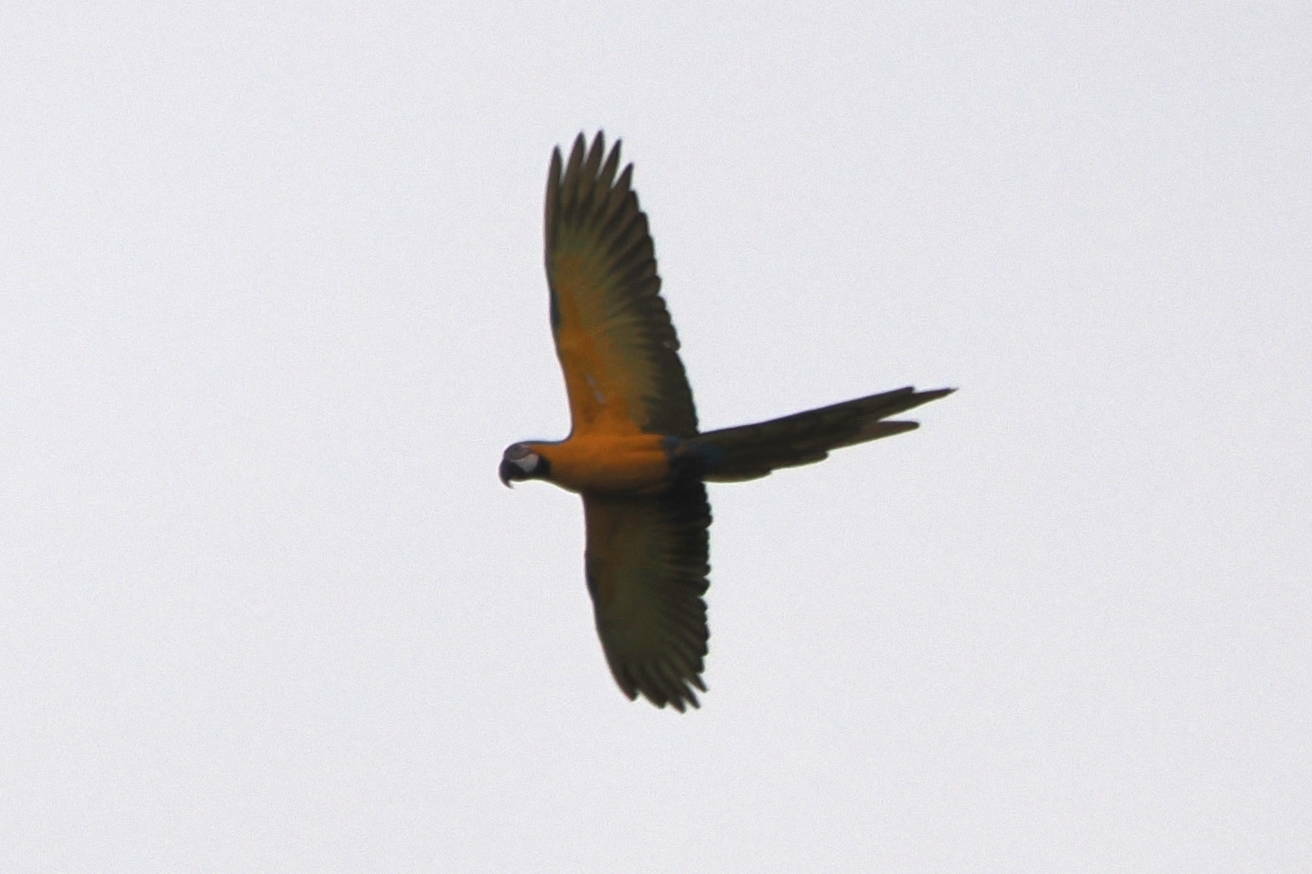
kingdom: Animalia
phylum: Chordata
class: Aves
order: Psittaciformes
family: Psittacidae
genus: Ara
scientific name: Ara ararauna
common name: Blue-and-yellow macaw
